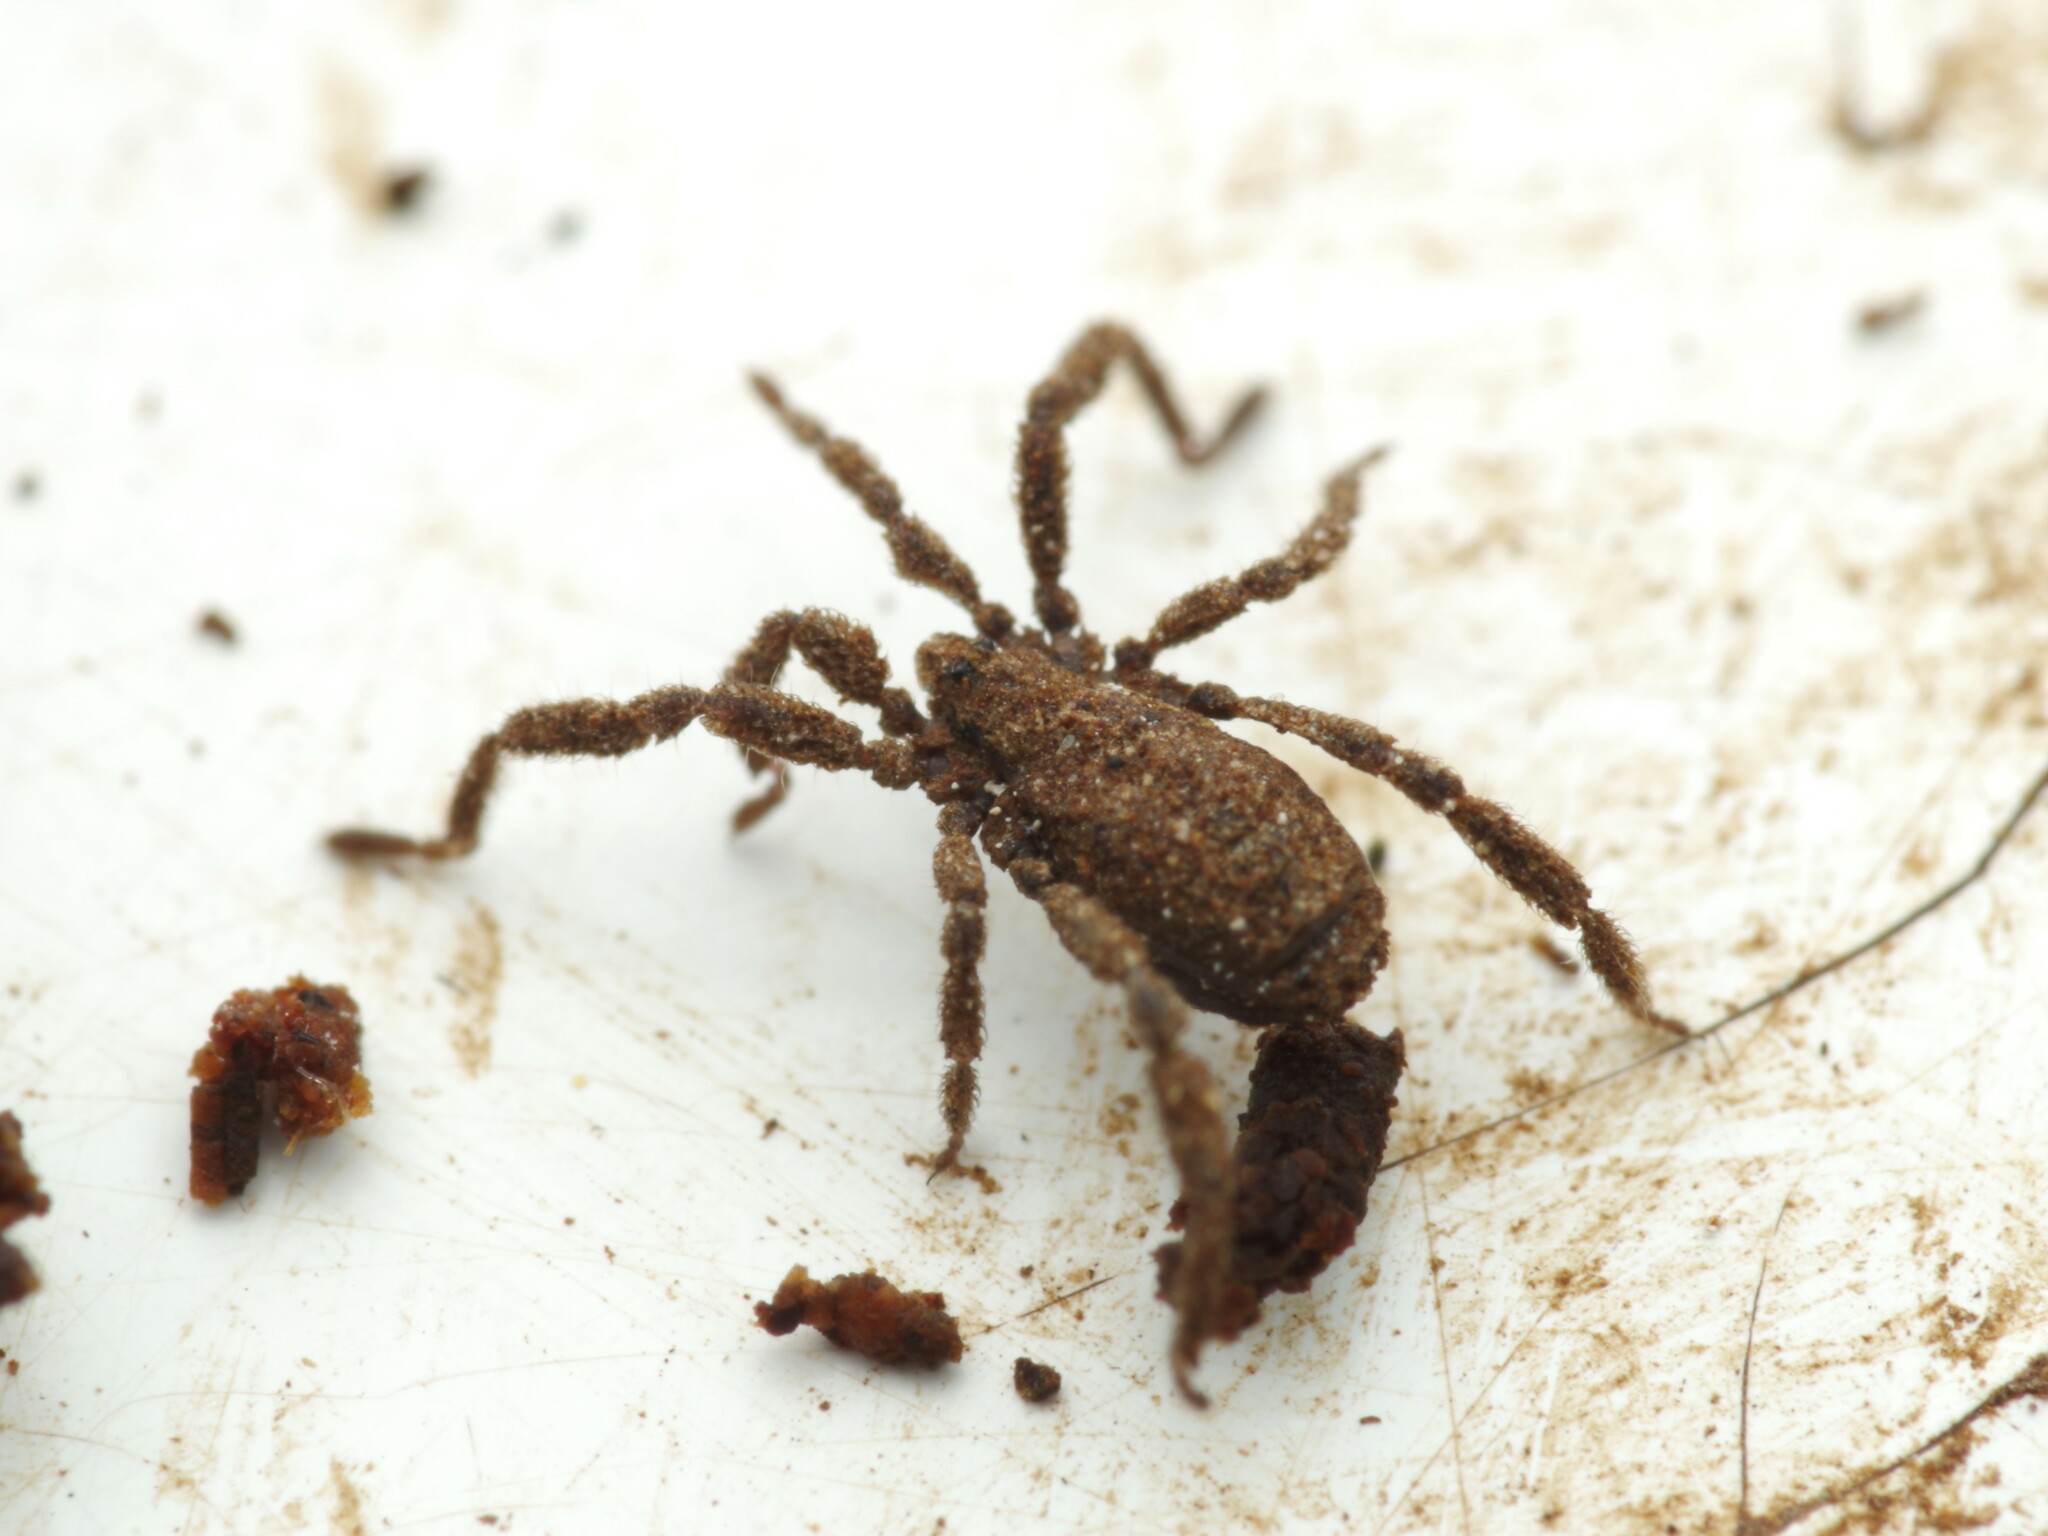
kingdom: Animalia
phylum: Arthropoda
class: Arachnida
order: Opiliones
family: Trogulidae
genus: Anelasmocephalus
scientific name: Anelasmocephalus cambridgei
